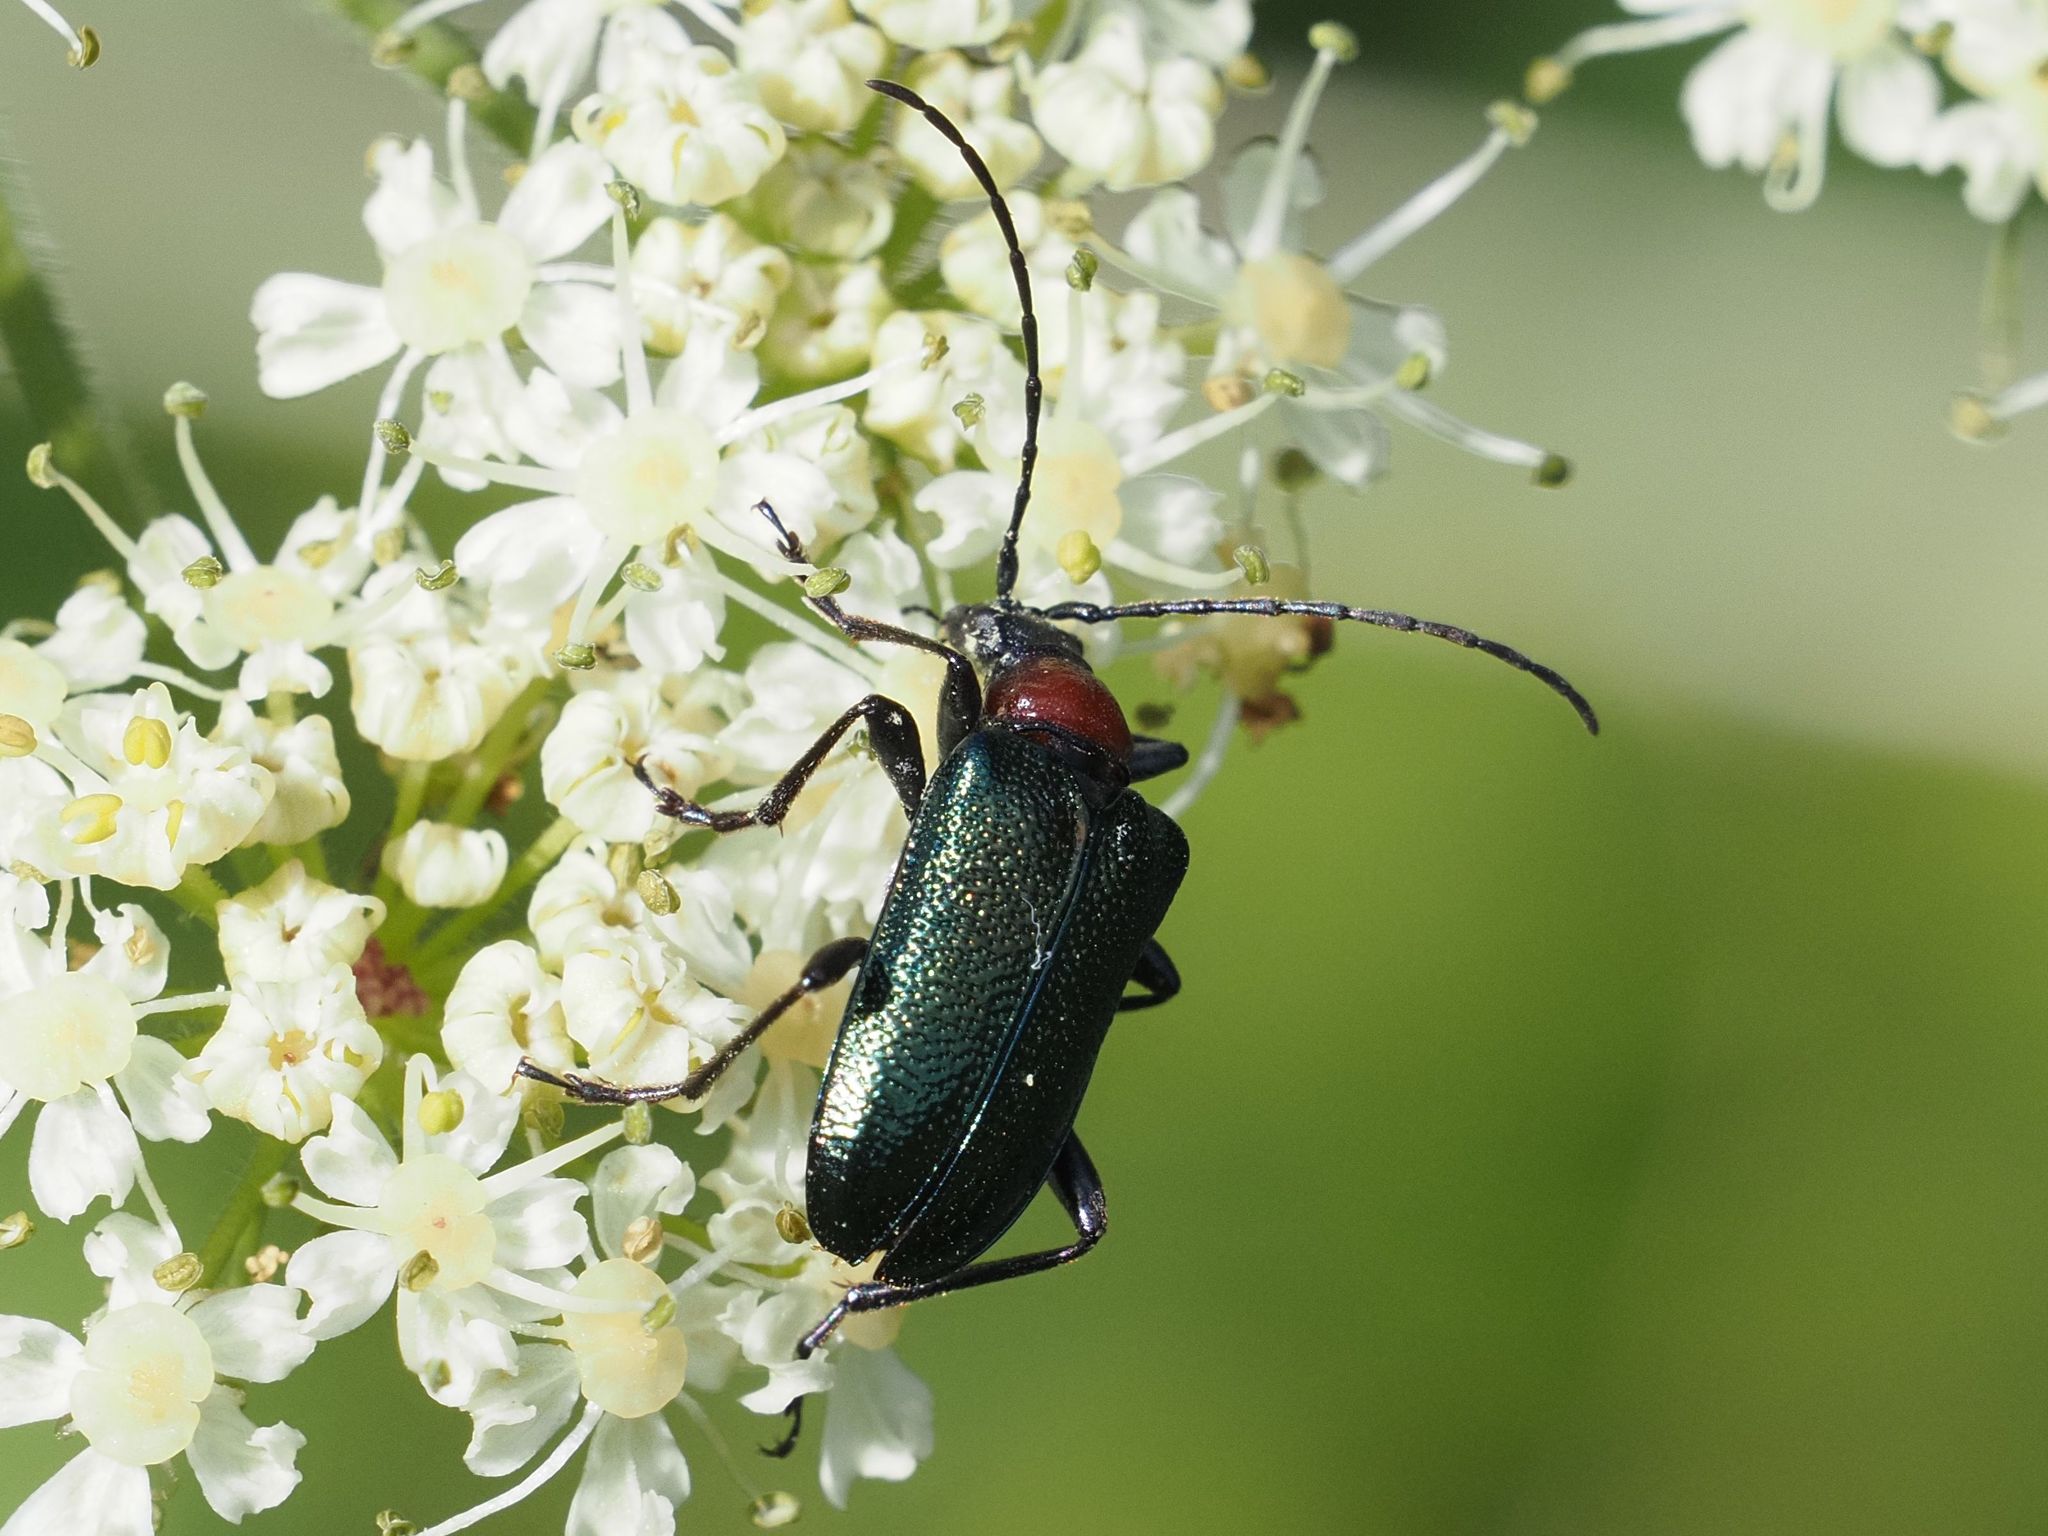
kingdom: Animalia
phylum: Arthropoda
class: Insecta
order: Coleoptera
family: Cerambycidae
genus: Gaurotes
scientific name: Gaurotes virginea
